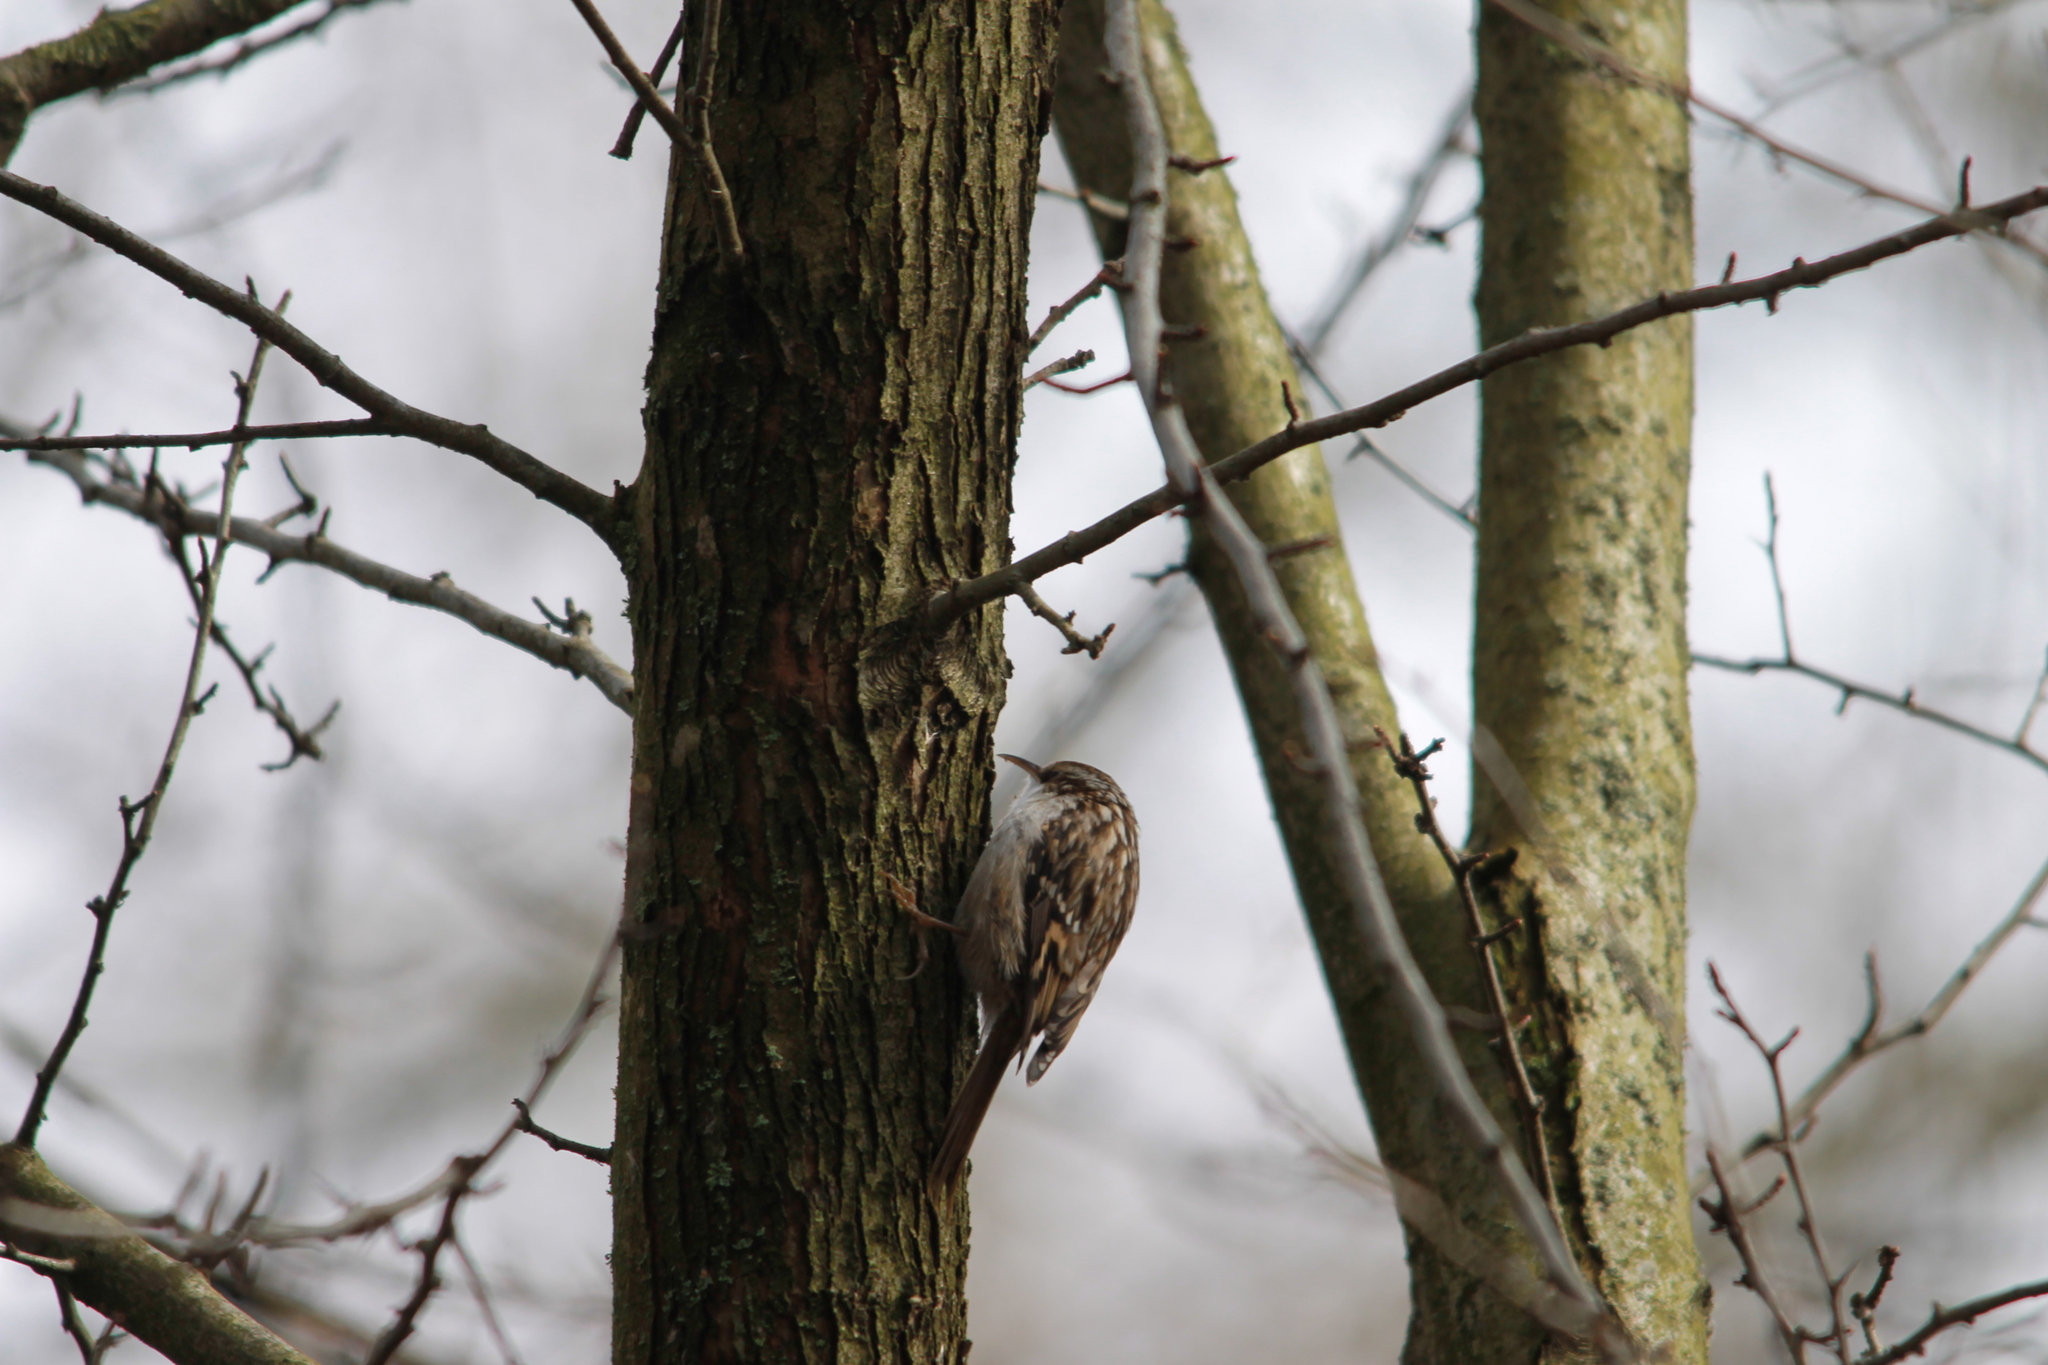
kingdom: Animalia
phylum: Chordata
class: Aves
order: Passeriformes
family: Certhiidae
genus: Certhia
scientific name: Certhia brachydactyla
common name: Short-toed treecreeper
